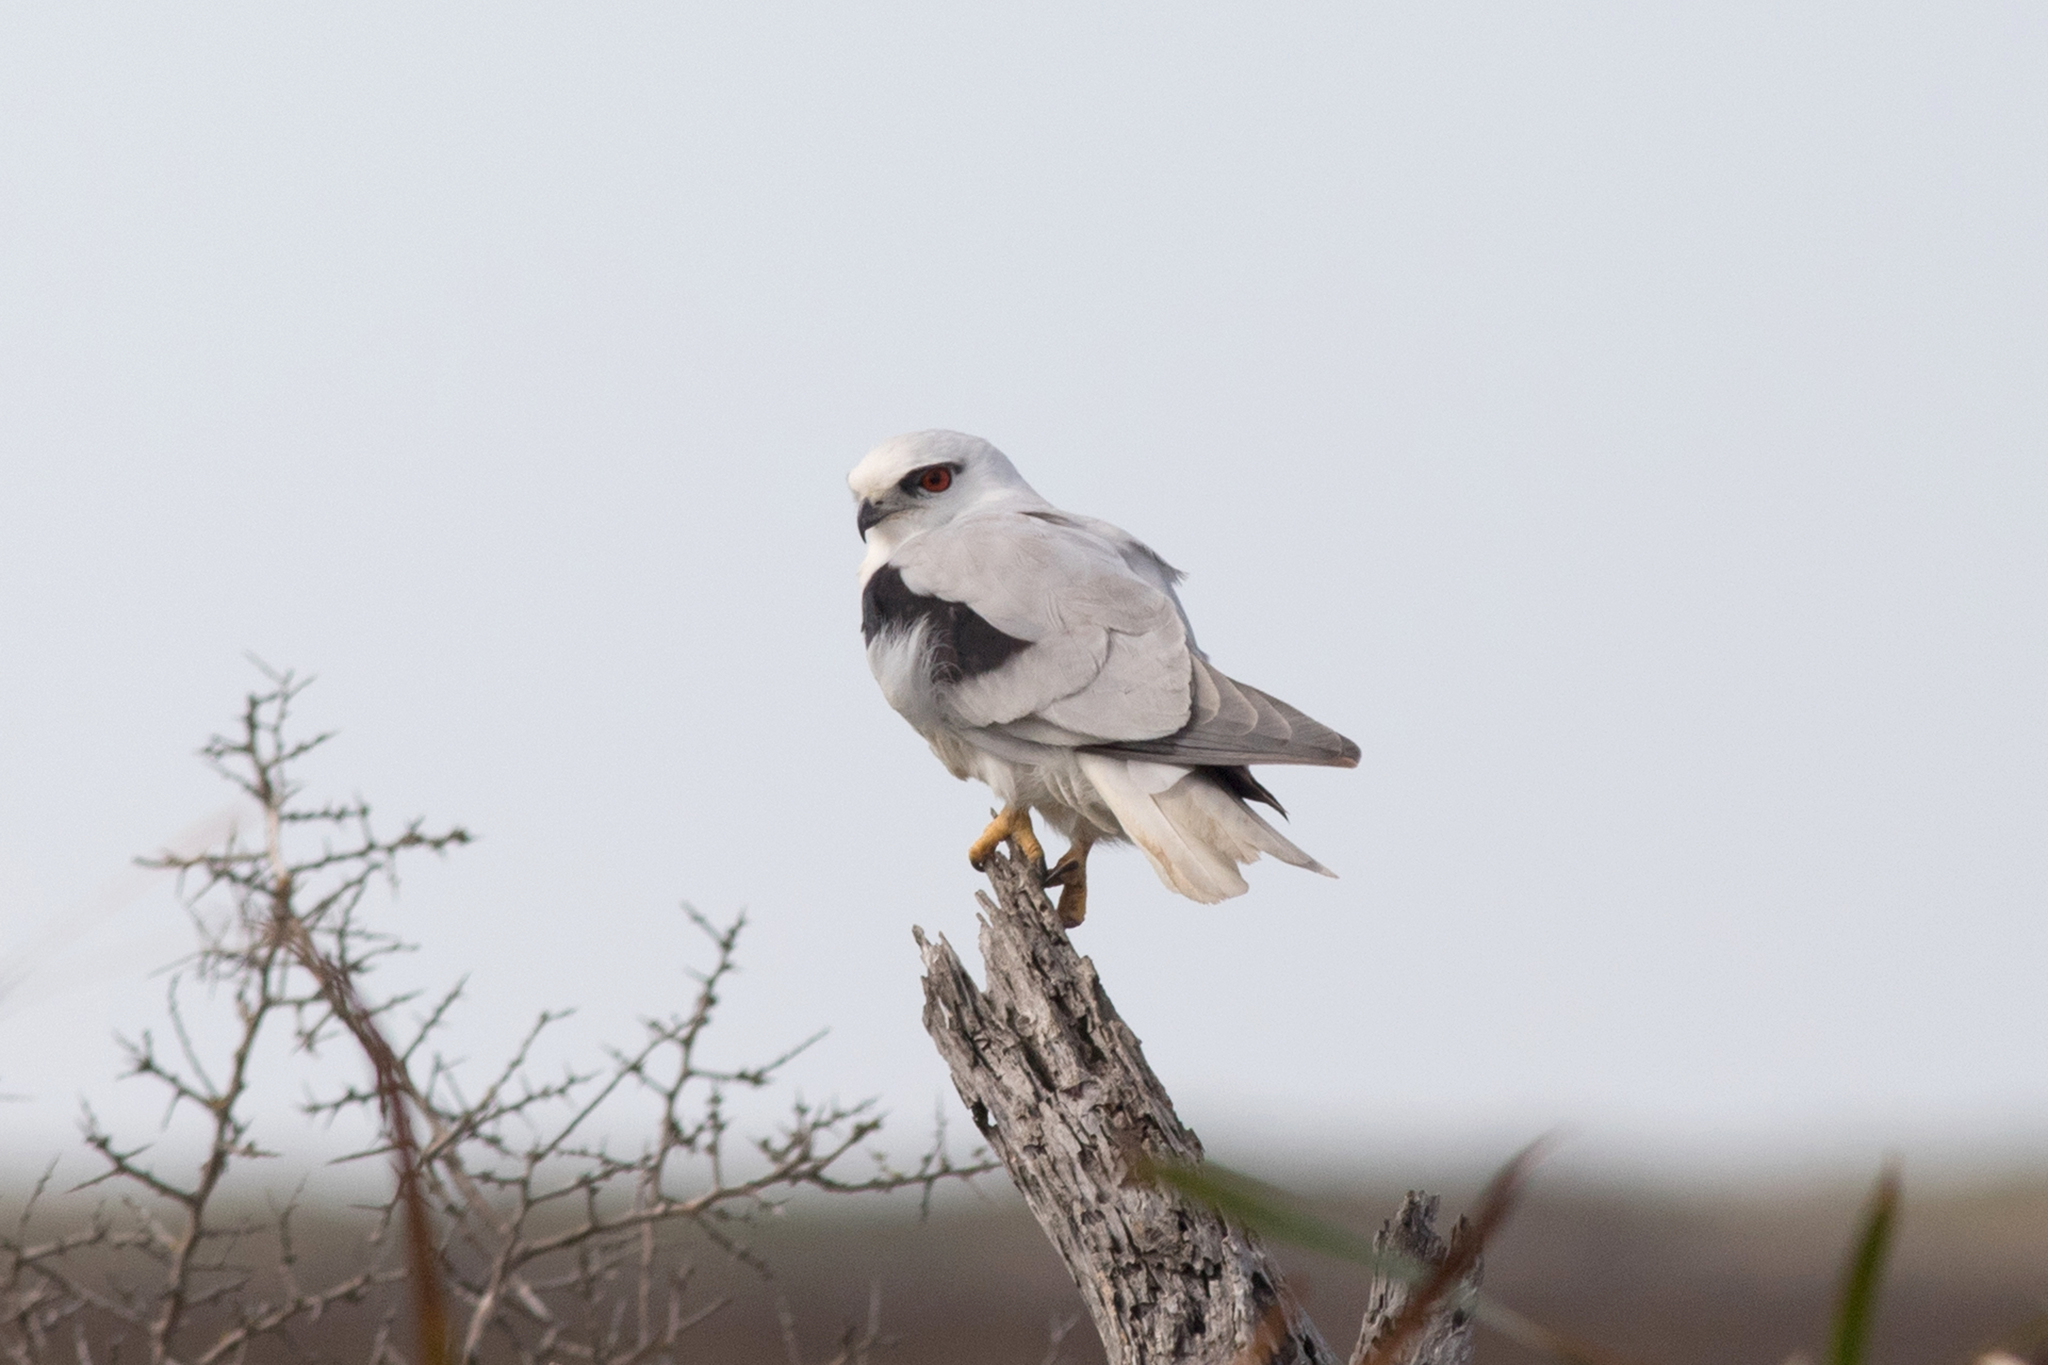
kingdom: Animalia
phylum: Chordata
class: Aves
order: Accipitriformes
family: Accipitridae
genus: Elanus
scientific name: Elanus axillaris
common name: Black-shouldered kite
